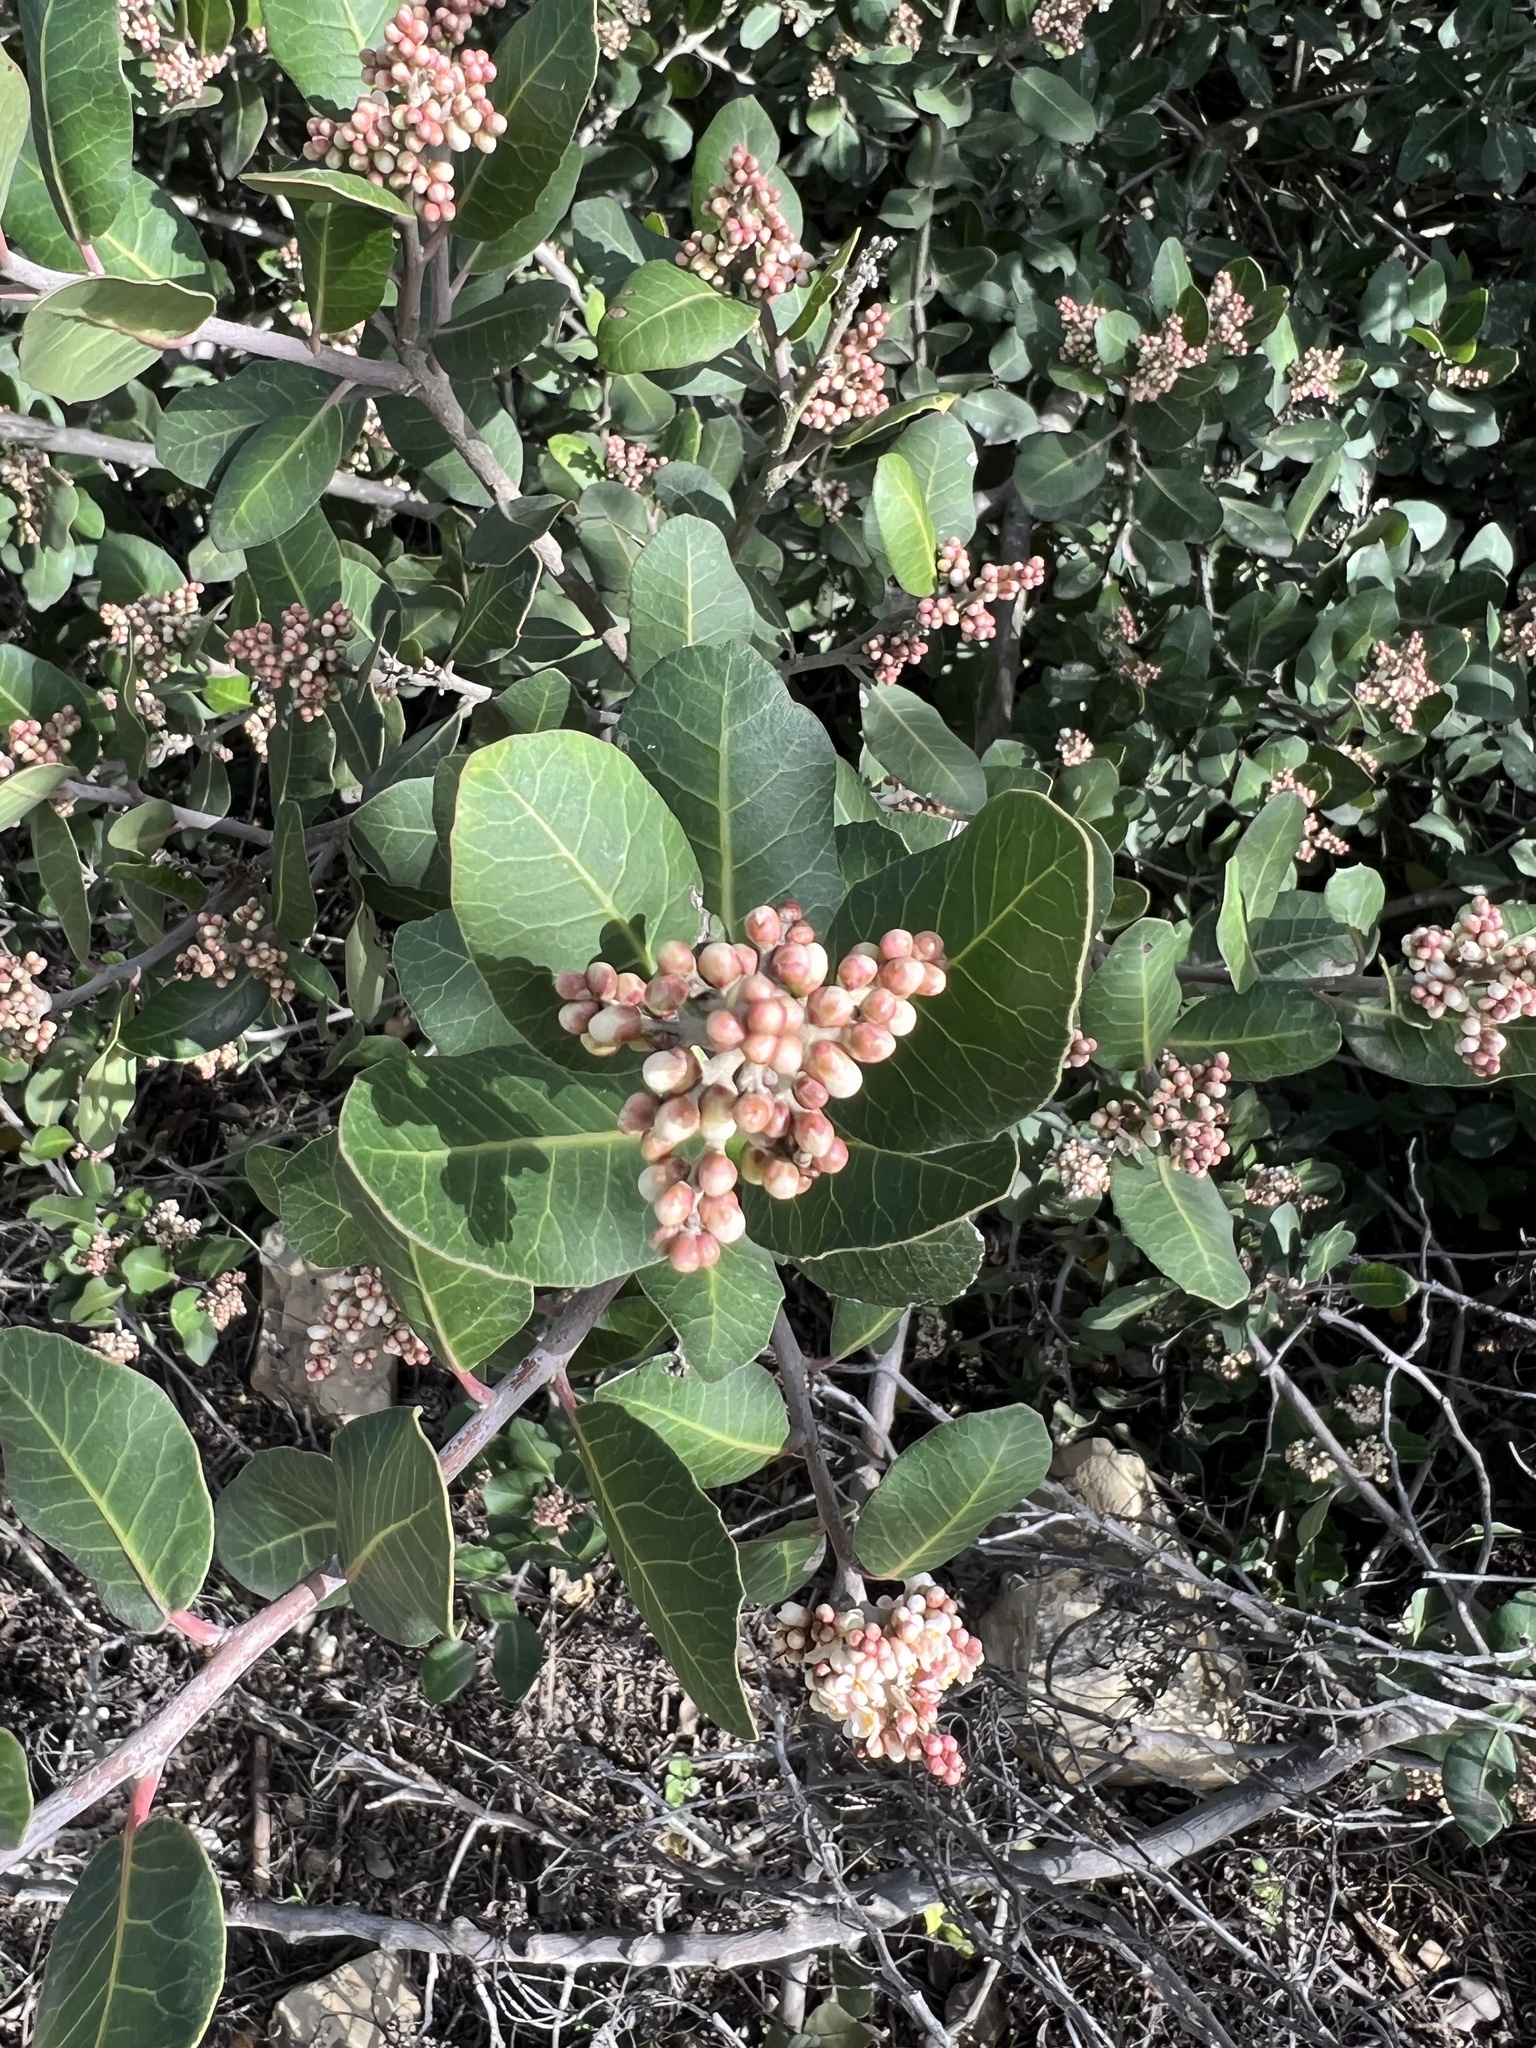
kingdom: Plantae
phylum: Tracheophyta
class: Magnoliopsida
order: Sapindales
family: Anacardiaceae
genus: Rhus
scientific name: Rhus integrifolia
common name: Lemonade sumac
